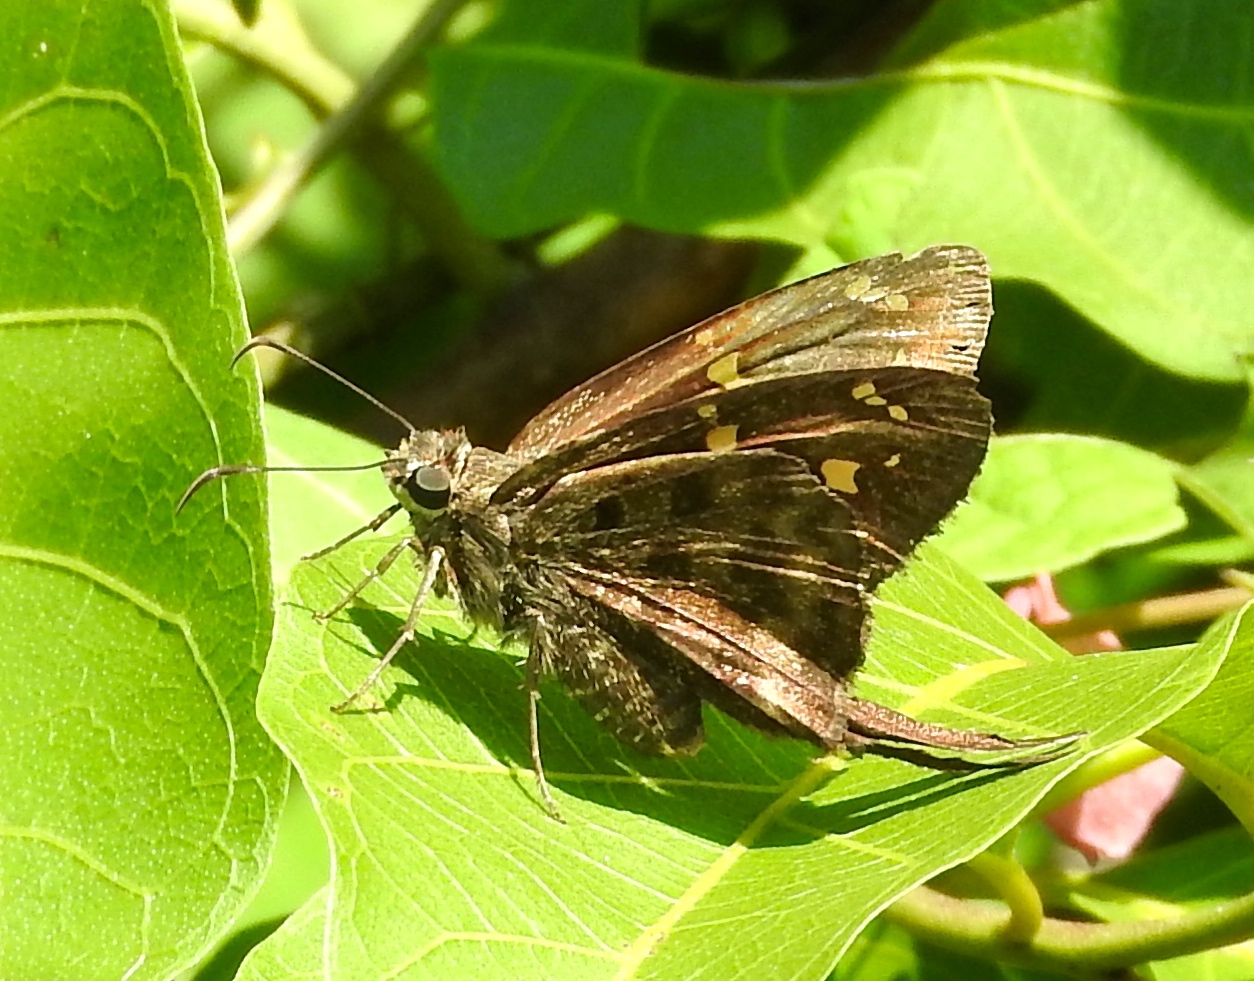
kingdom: Animalia
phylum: Arthropoda
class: Insecta
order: Lepidoptera
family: Hesperiidae
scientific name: Hesperiidae
